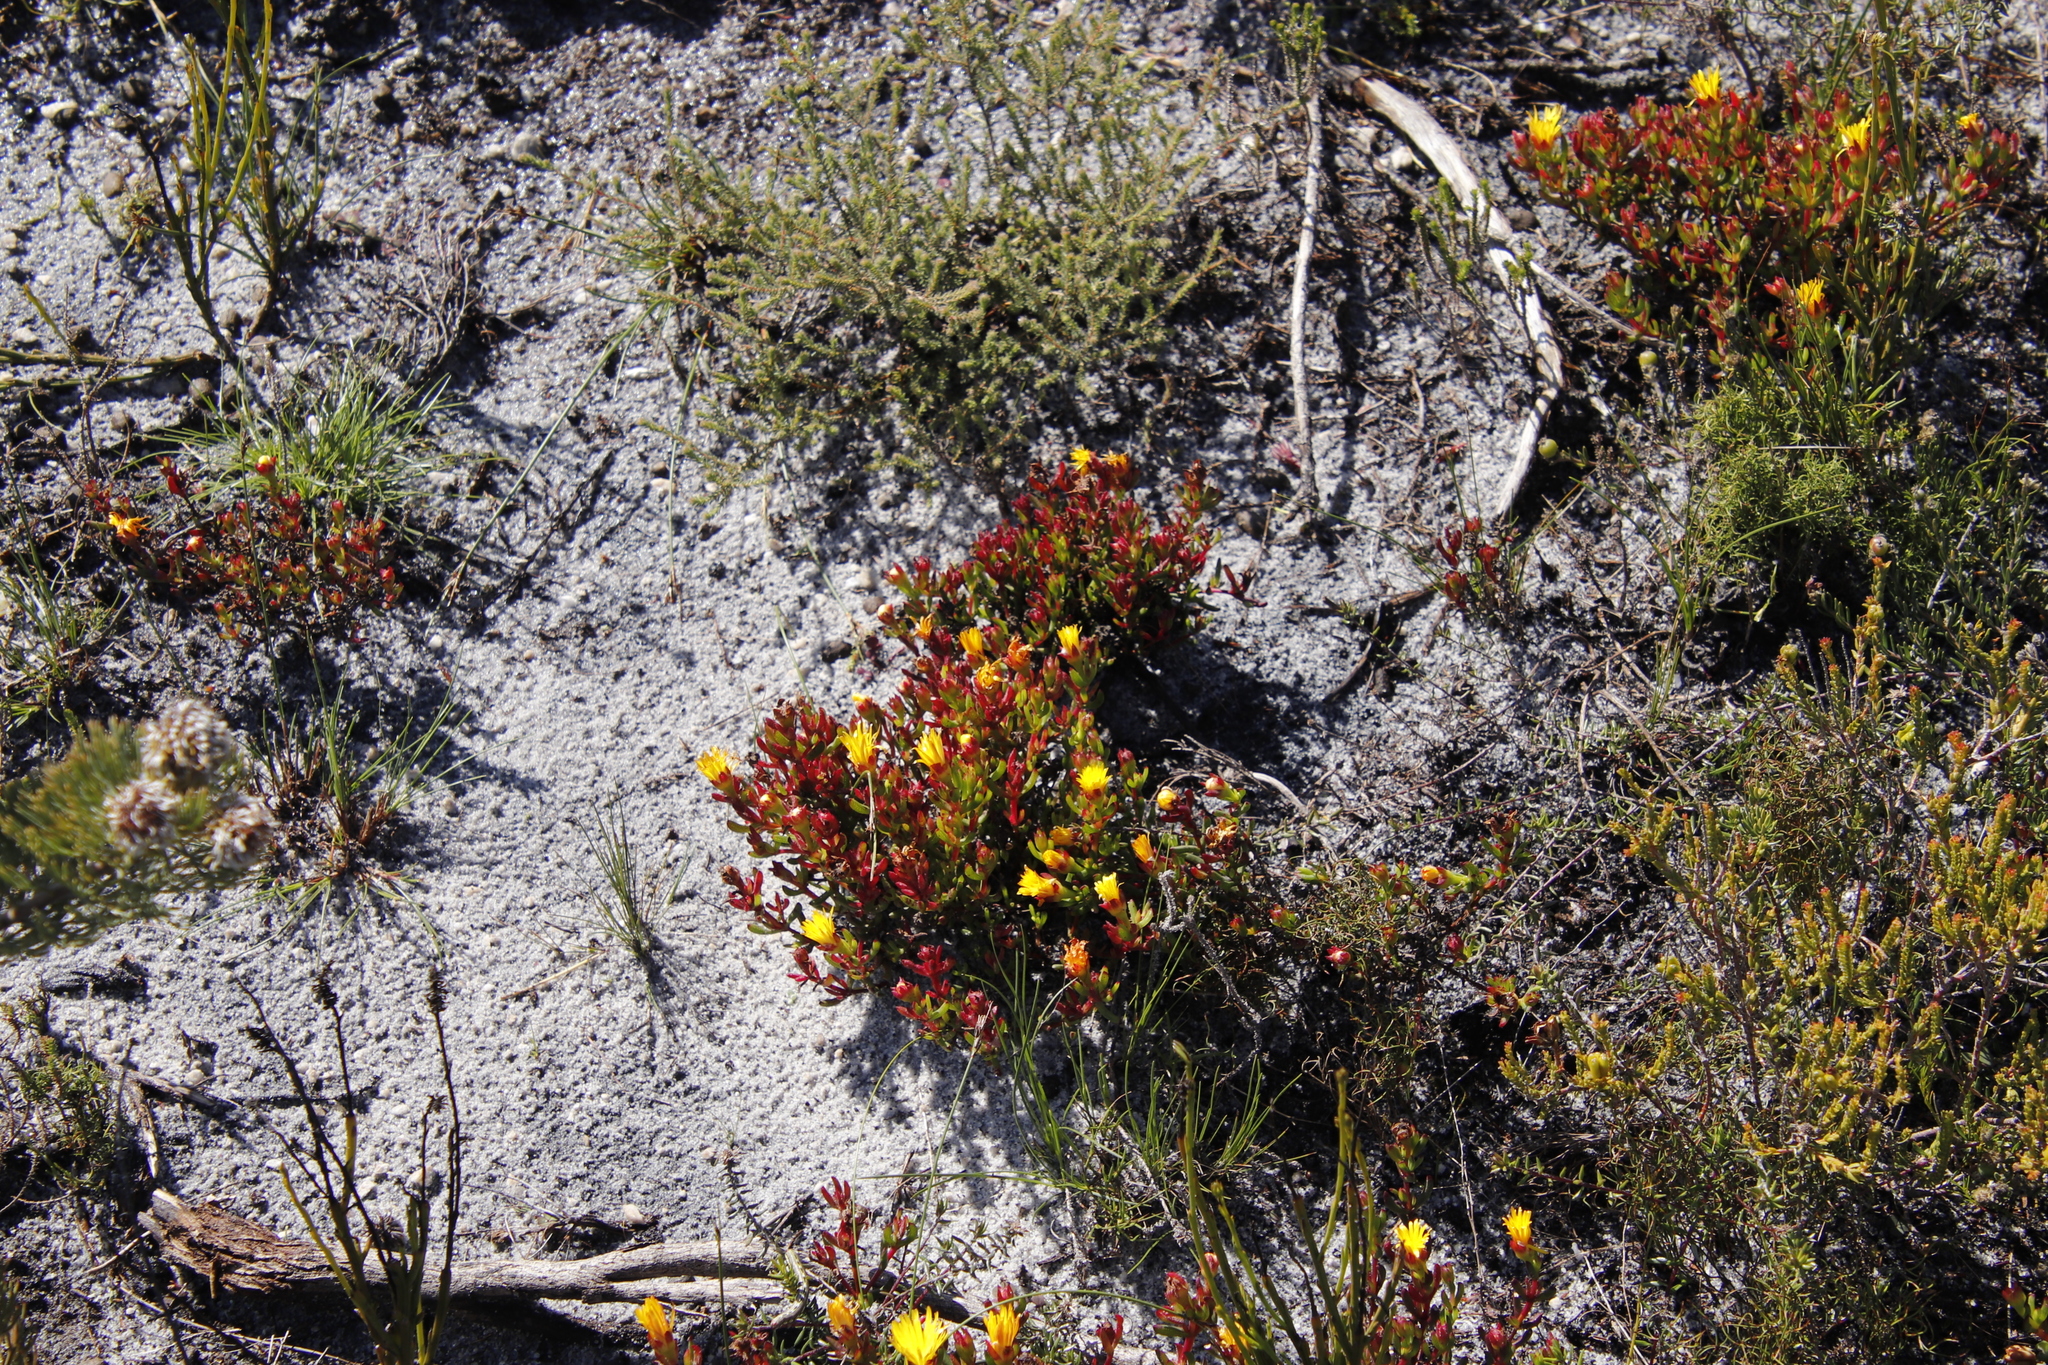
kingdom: Plantae
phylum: Tracheophyta
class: Magnoliopsida
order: Caryophyllales
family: Aizoaceae
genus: Lampranthus
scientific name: Lampranthus promontorii
